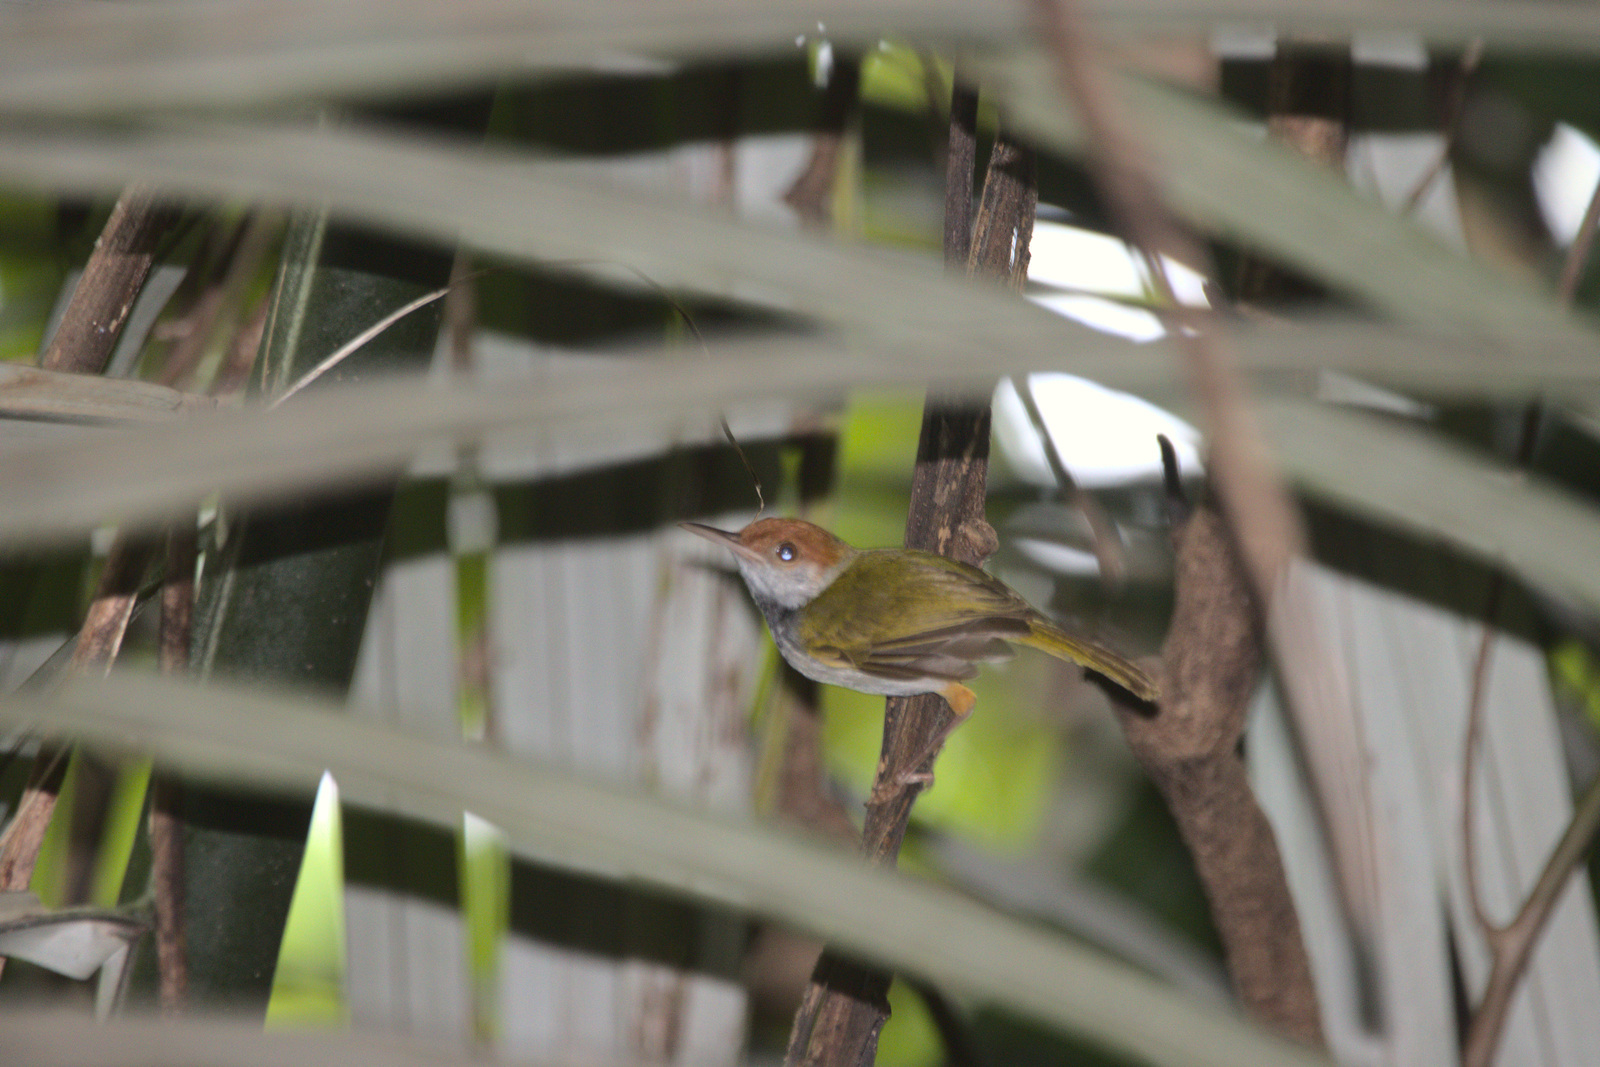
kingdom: Animalia
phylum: Chordata
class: Aves
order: Passeriformes
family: Cisticolidae
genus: Orthotomus
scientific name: Orthotomus atrogularis
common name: Dark-necked tailorbird
